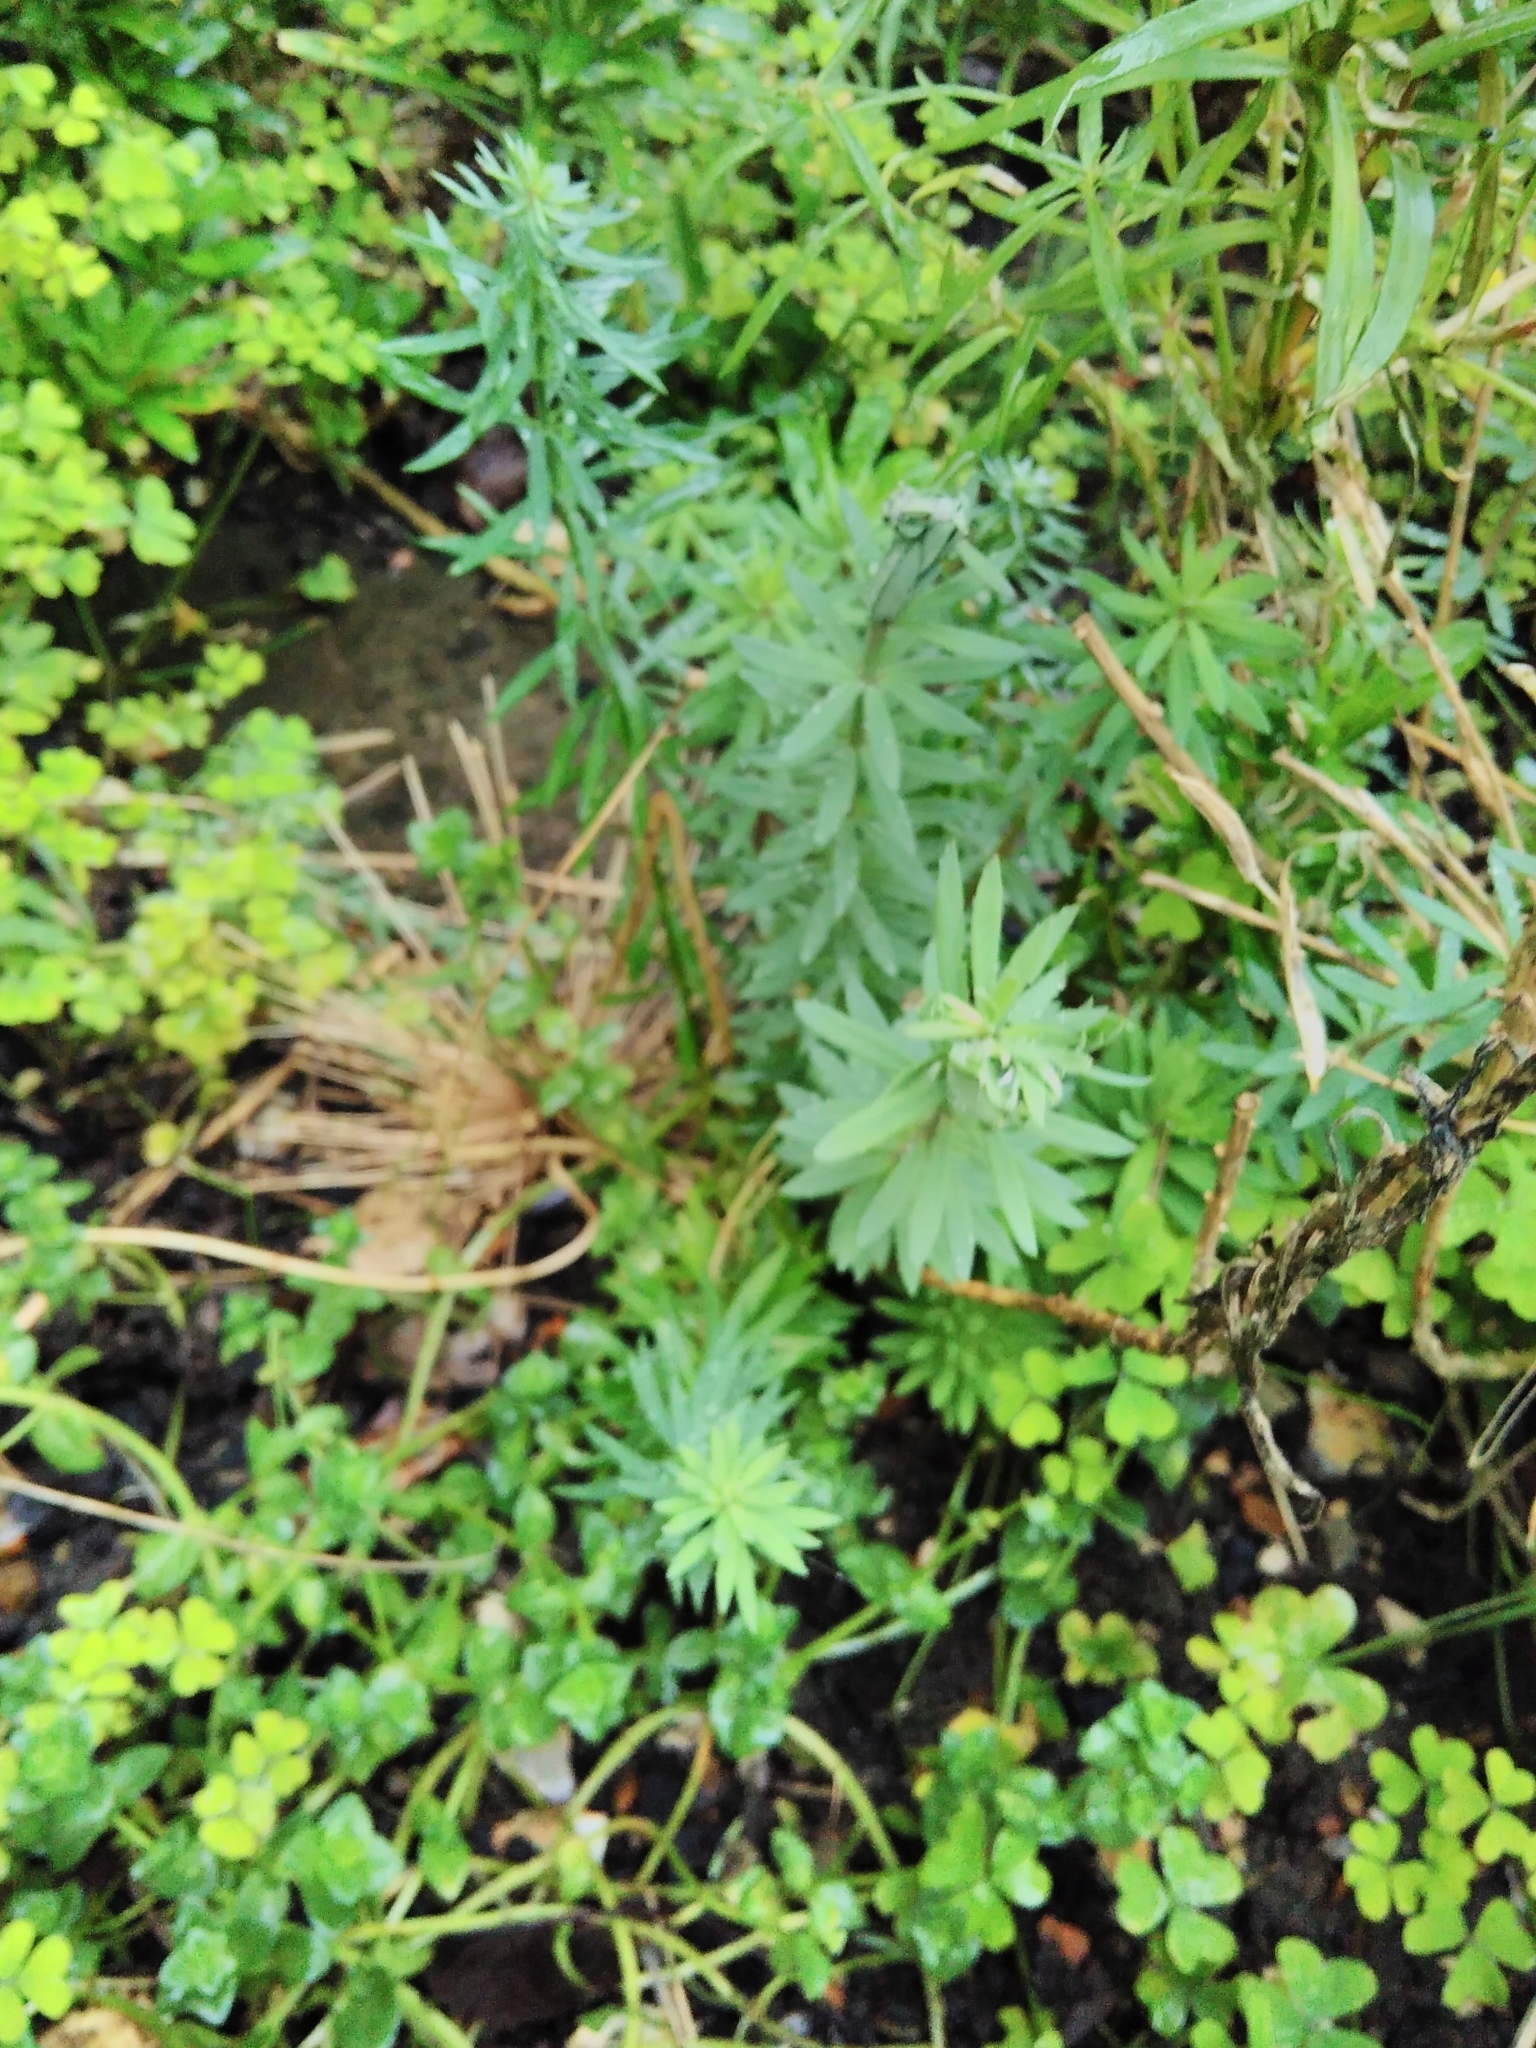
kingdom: Plantae
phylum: Tracheophyta
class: Magnoliopsida
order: Lamiales
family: Plantaginaceae
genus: Linaria
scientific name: Linaria purpurea
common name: Purple toadflax
